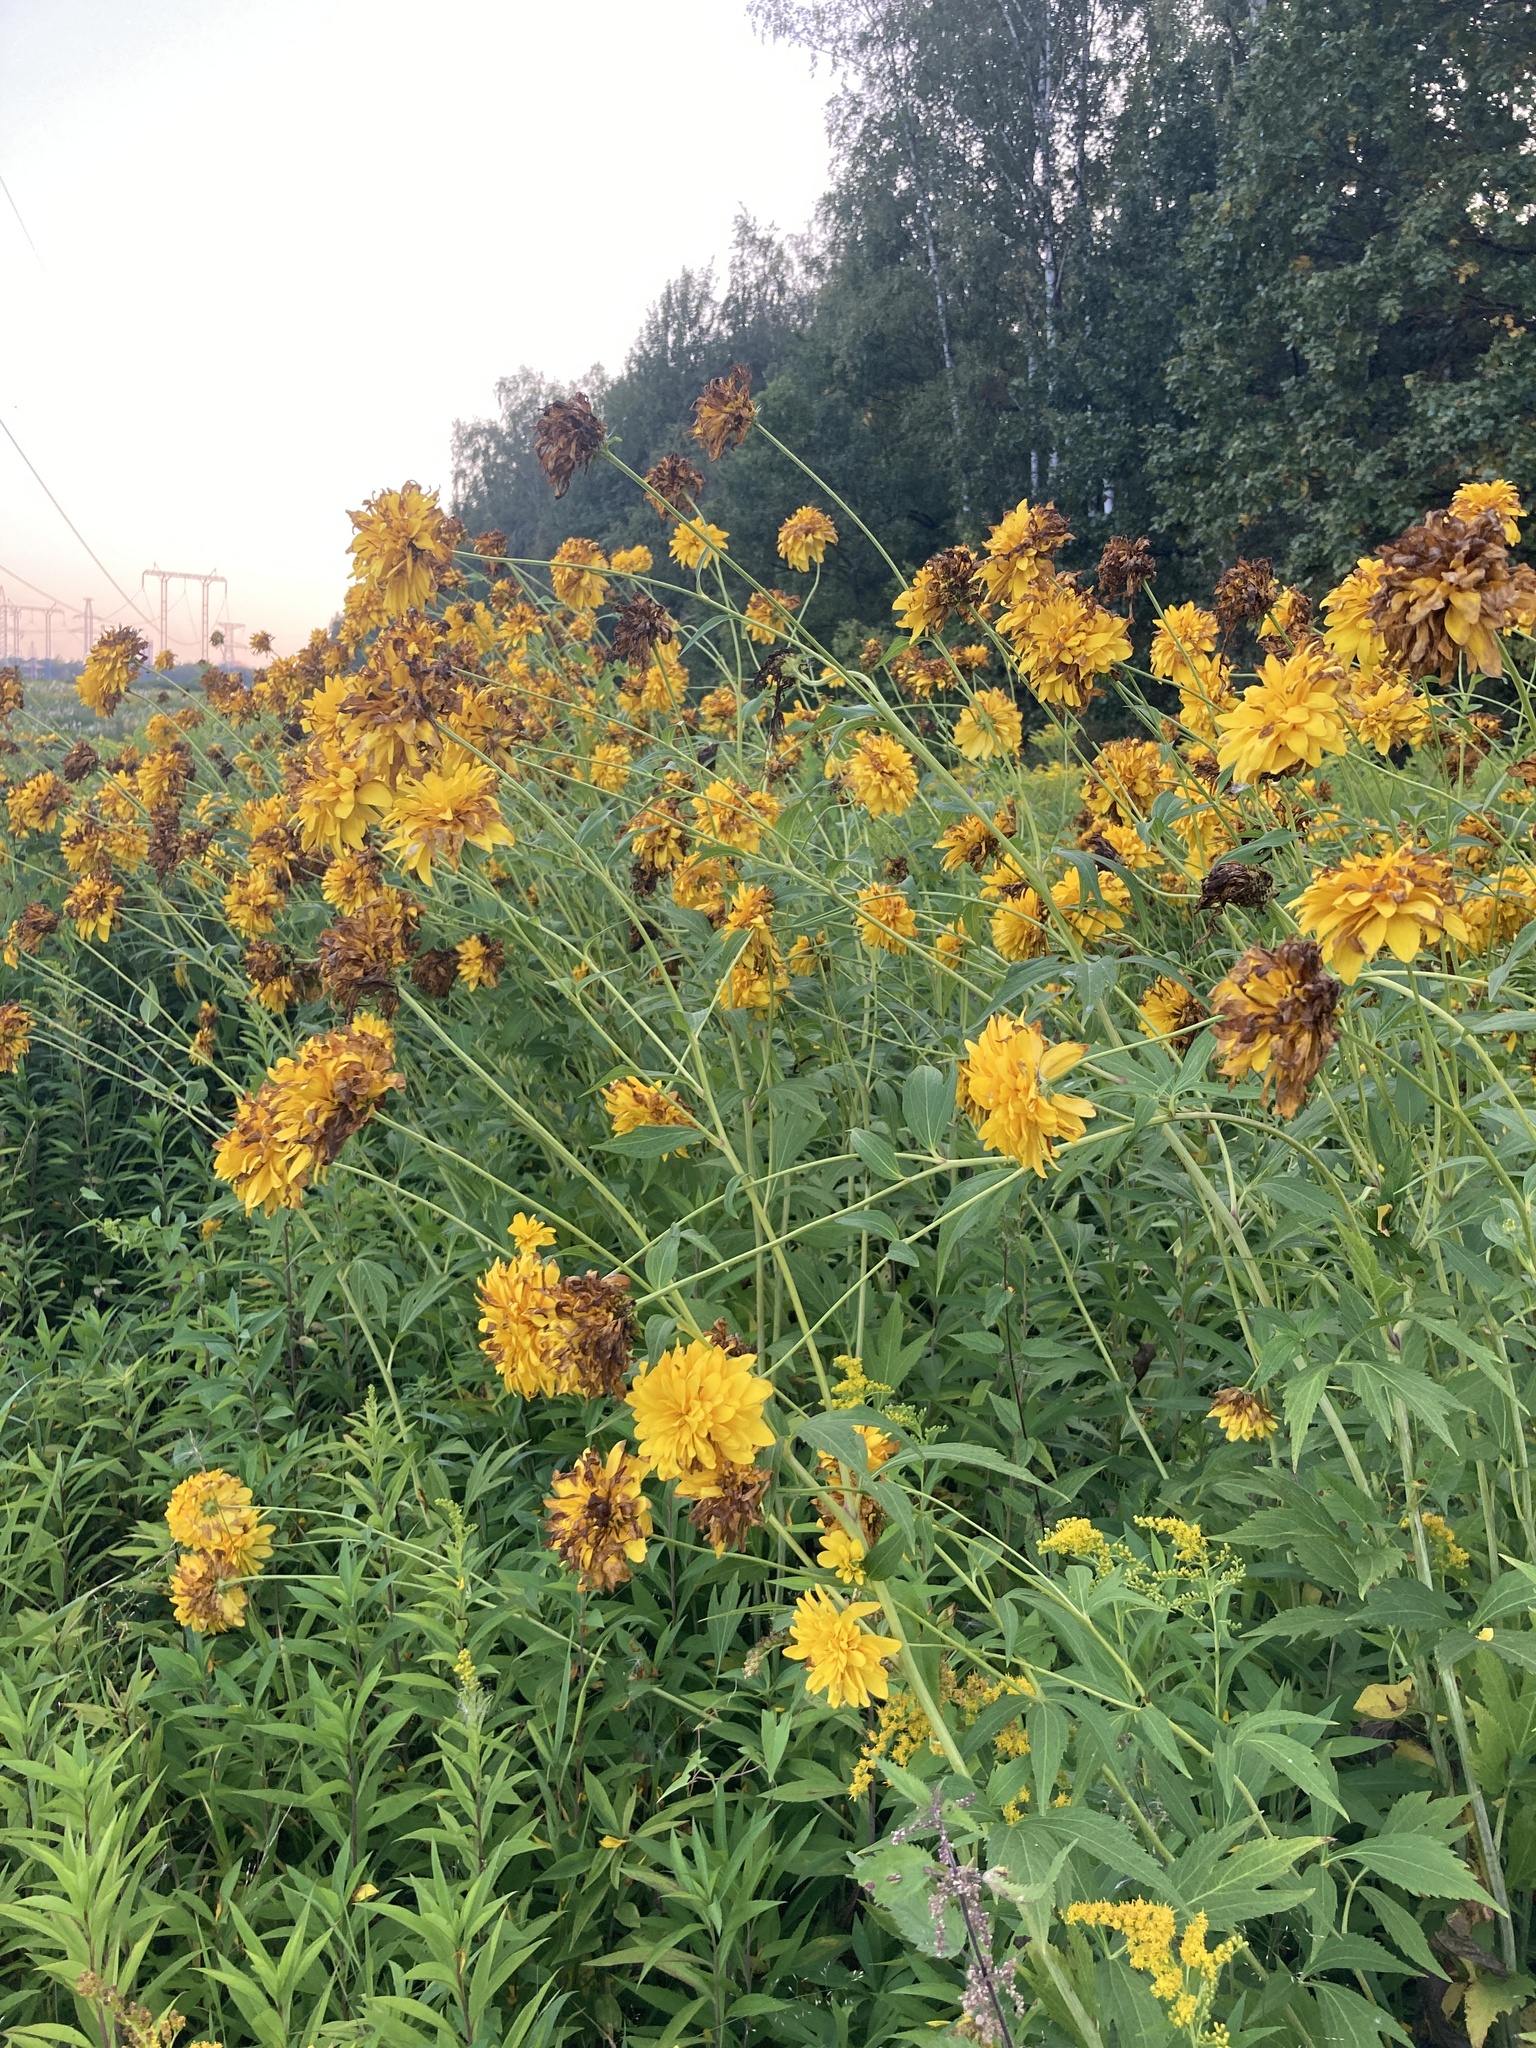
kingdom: Plantae
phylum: Tracheophyta
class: Magnoliopsida
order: Asterales
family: Asteraceae
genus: Rudbeckia
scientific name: Rudbeckia laciniata
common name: Coneflower
